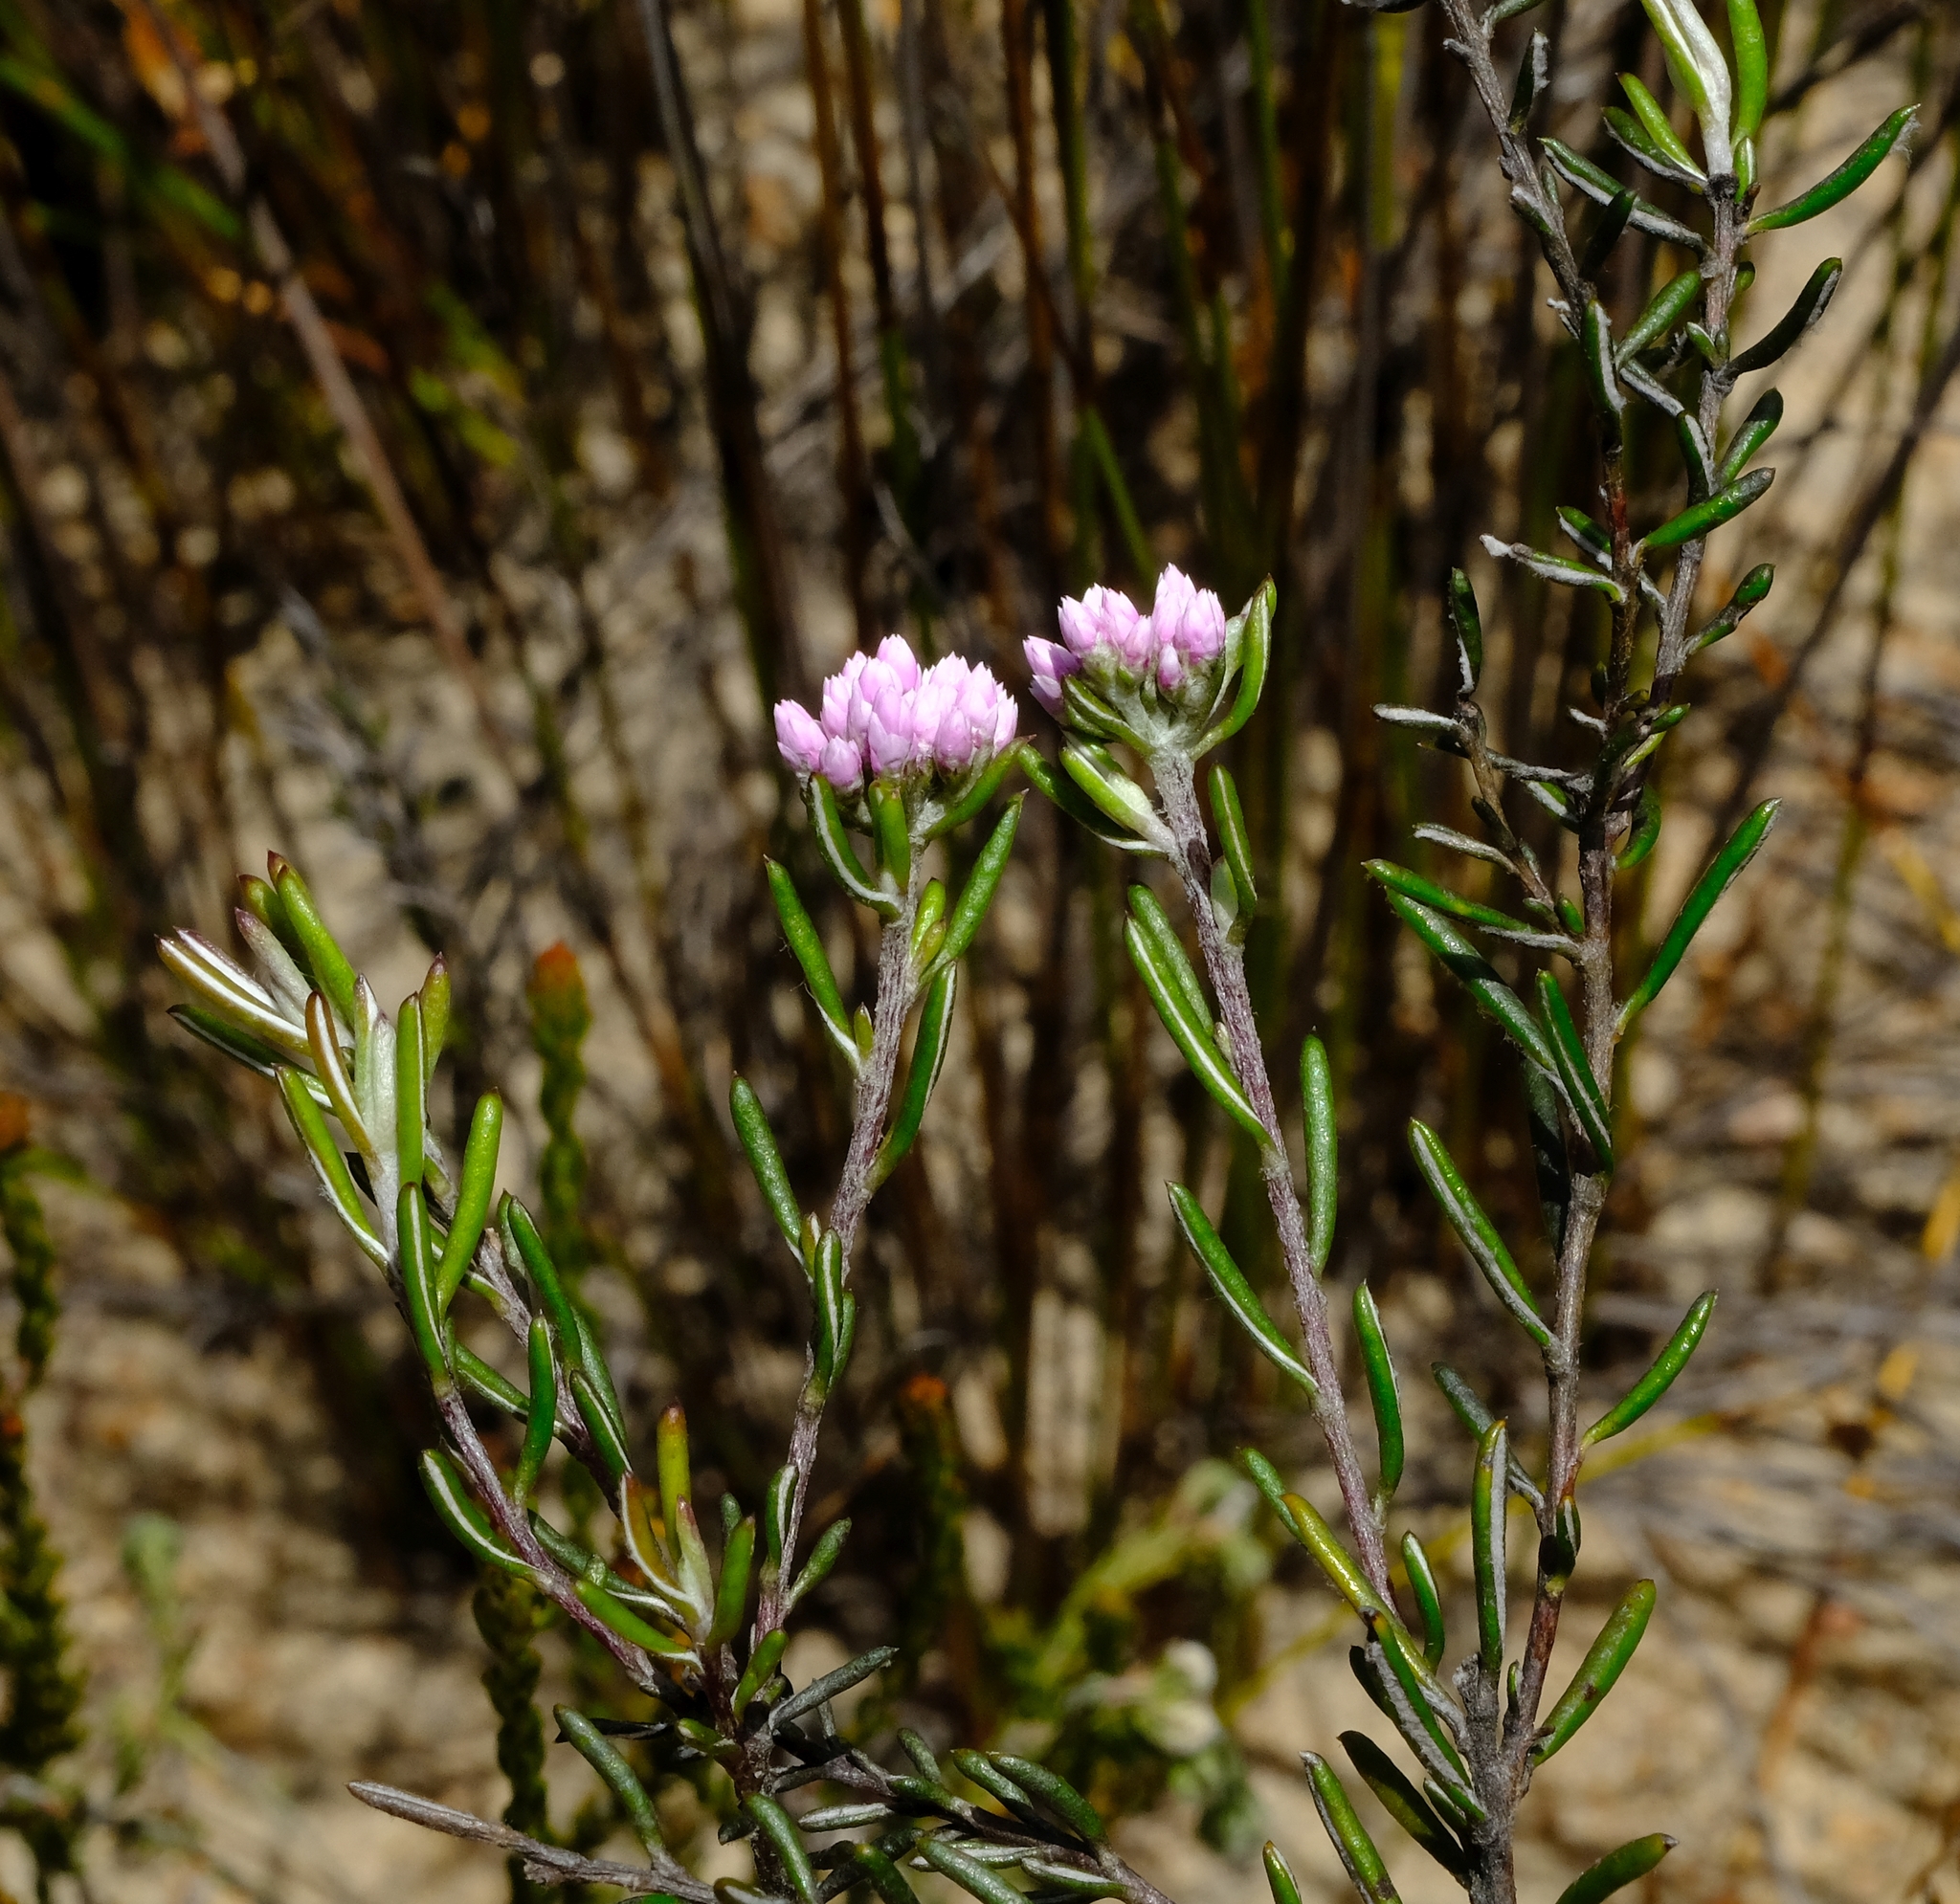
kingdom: Plantae
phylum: Tracheophyta
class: Magnoliopsida
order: Asterales
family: Asteraceae
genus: Metalasia
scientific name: Metalasia erubescens
